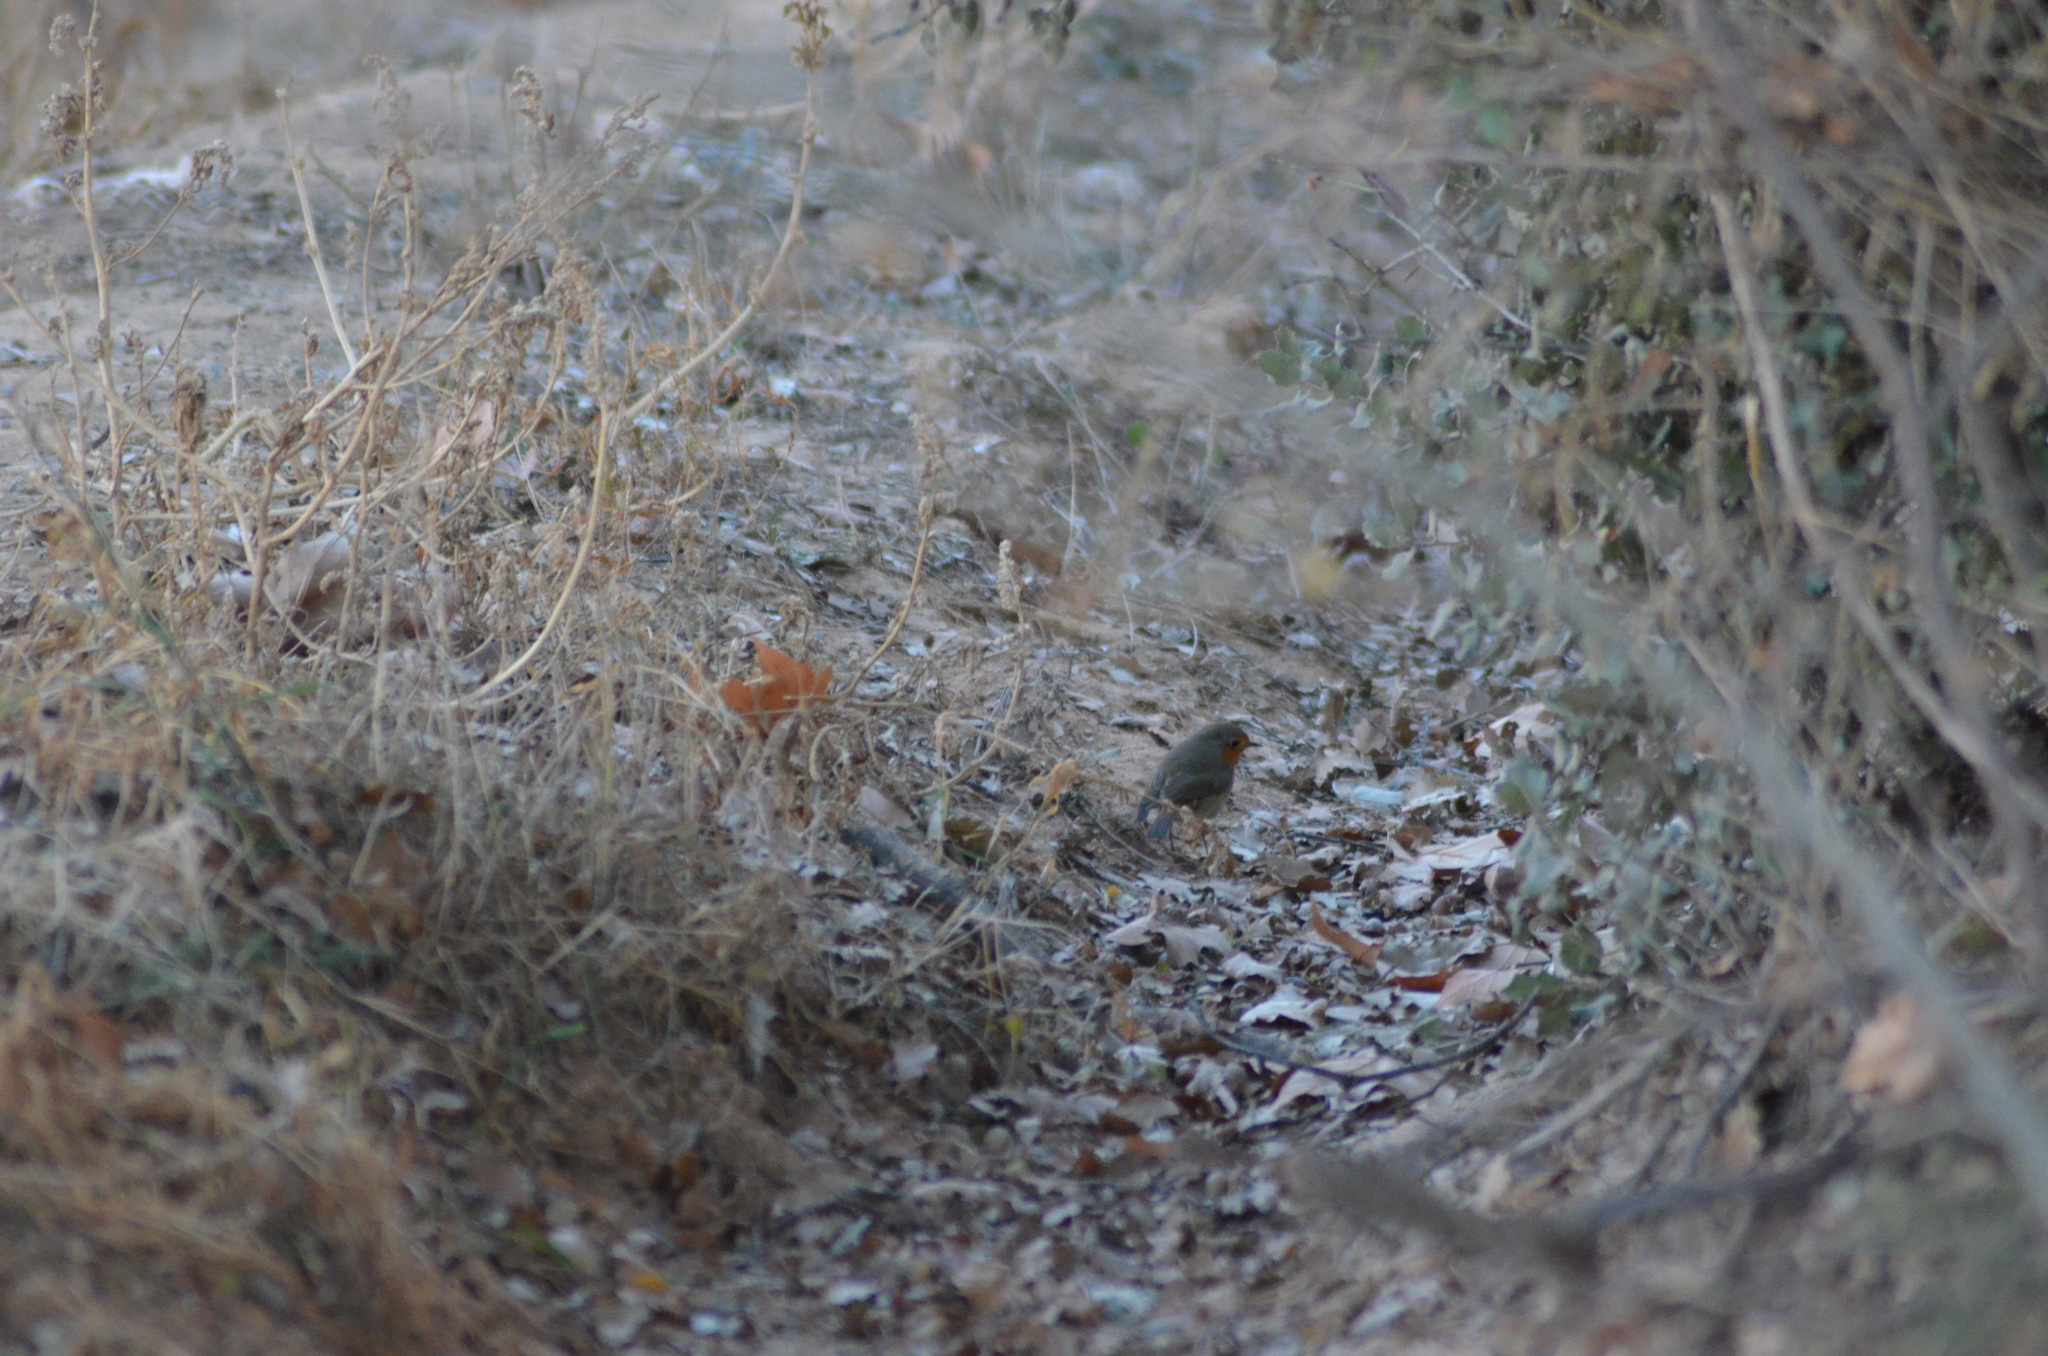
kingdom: Animalia
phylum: Chordata
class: Aves
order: Passeriformes
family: Muscicapidae
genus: Erithacus
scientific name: Erithacus rubecula
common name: European robin
